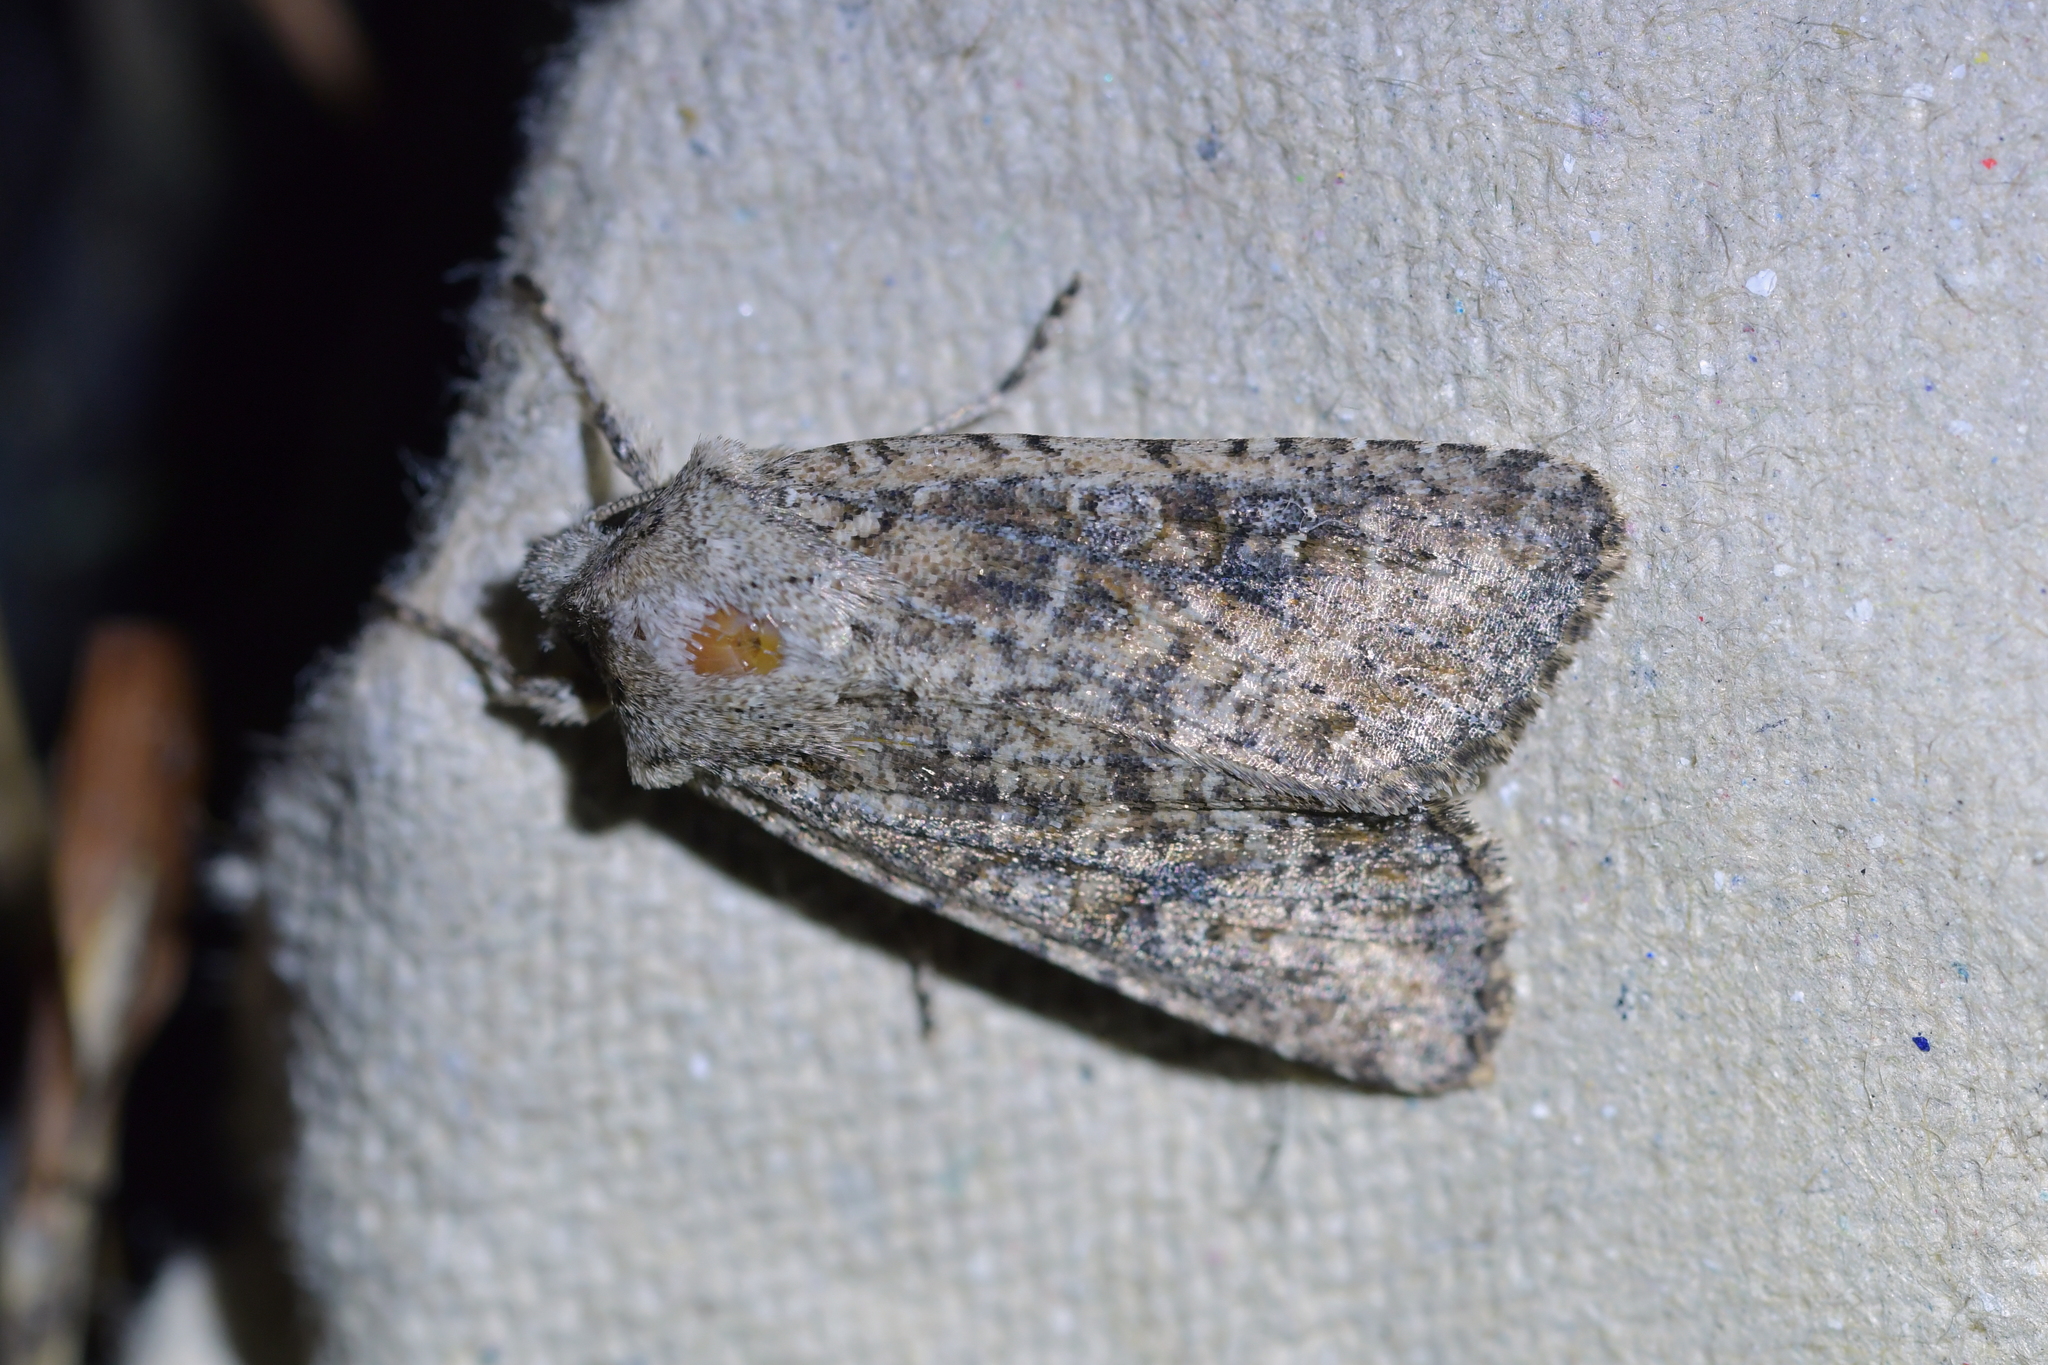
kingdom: Animalia
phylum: Arthropoda
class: Insecta
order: Lepidoptera
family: Noctuidae
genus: Ichneutica
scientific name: Ichneutica morosa
